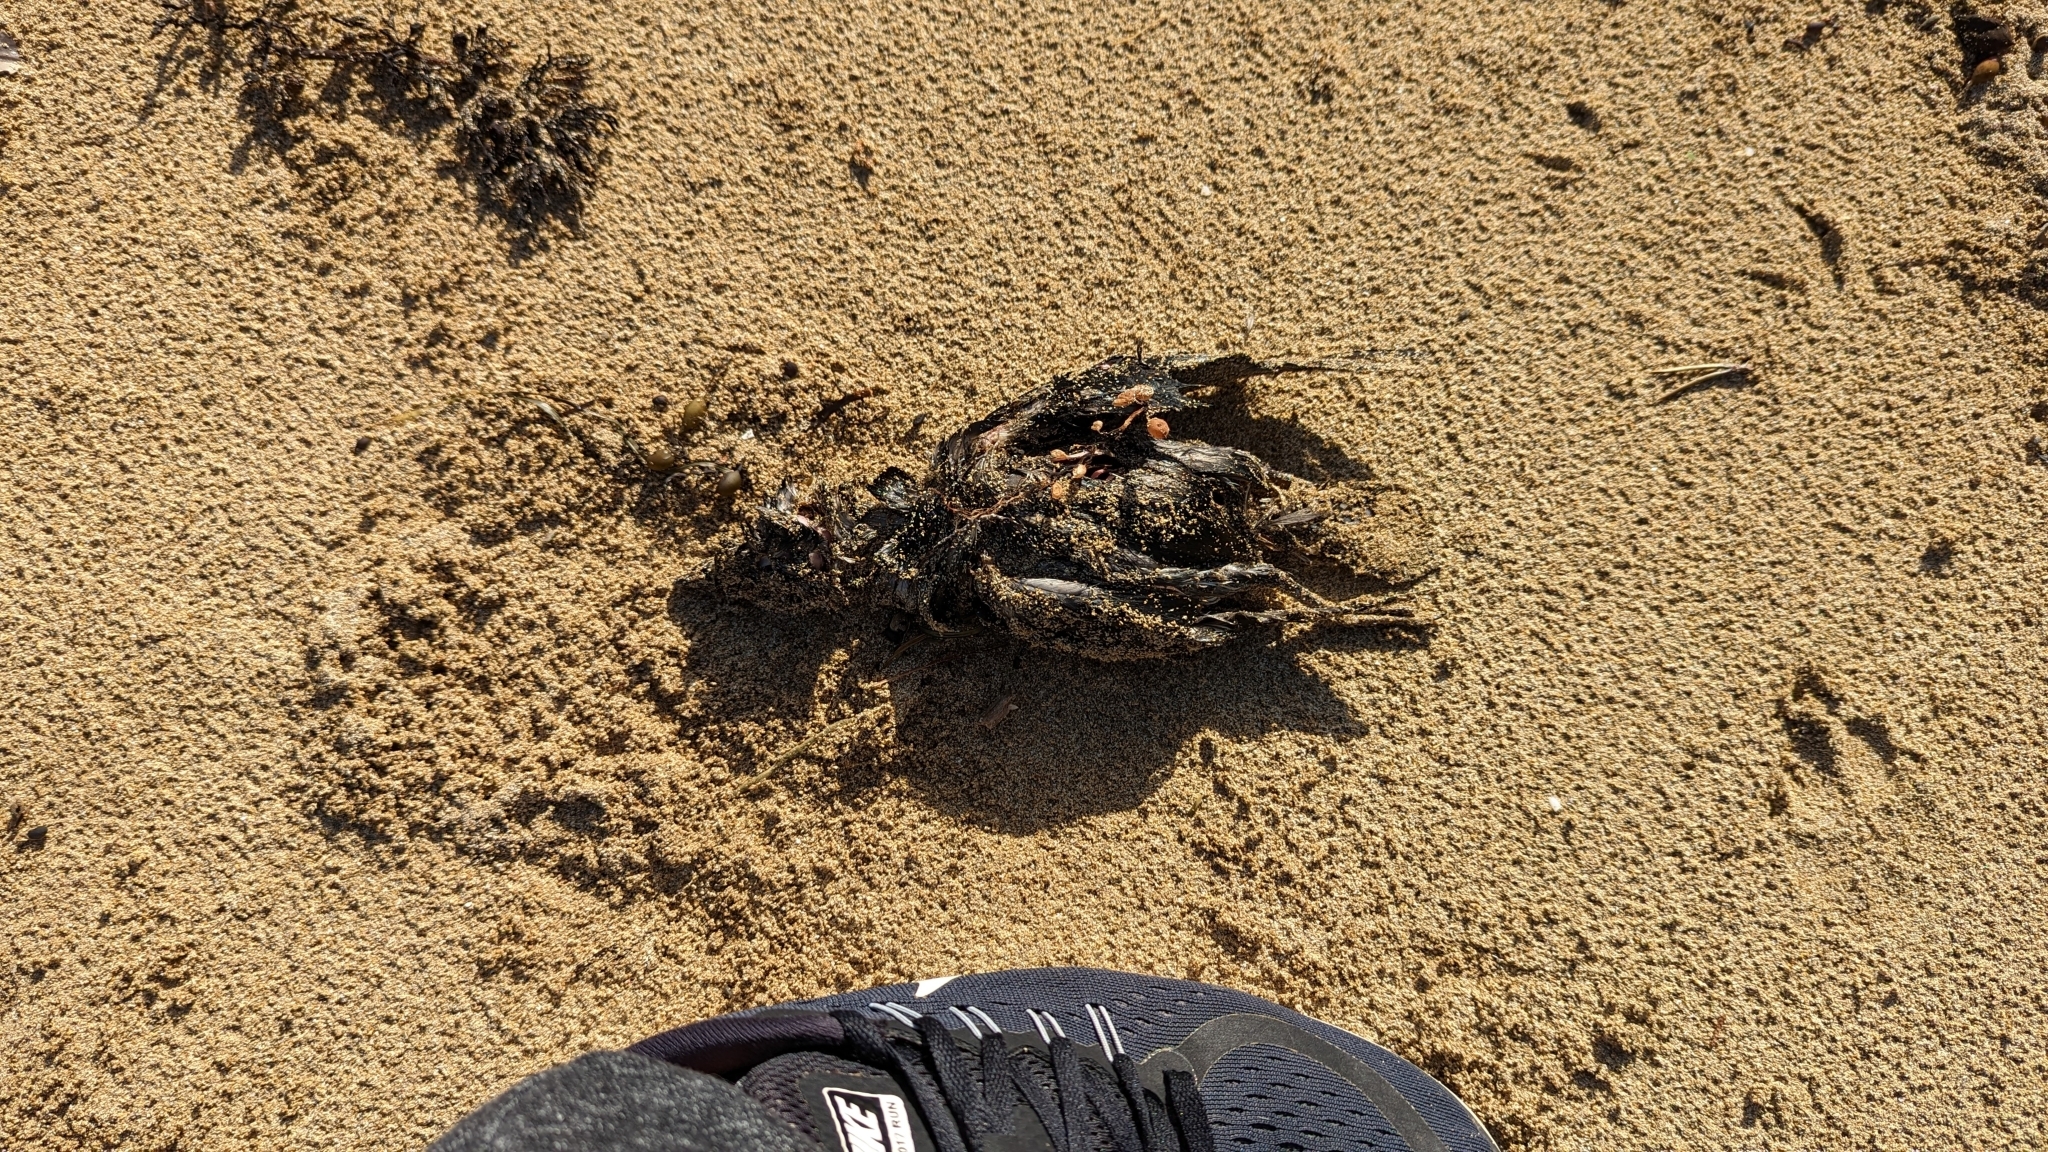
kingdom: Animalia
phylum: Chordata
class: Aves
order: Procellariiformes
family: Pelecanoididae
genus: Pelecanoides
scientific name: Pelecanoides urinatrix
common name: Common diving-petrel
